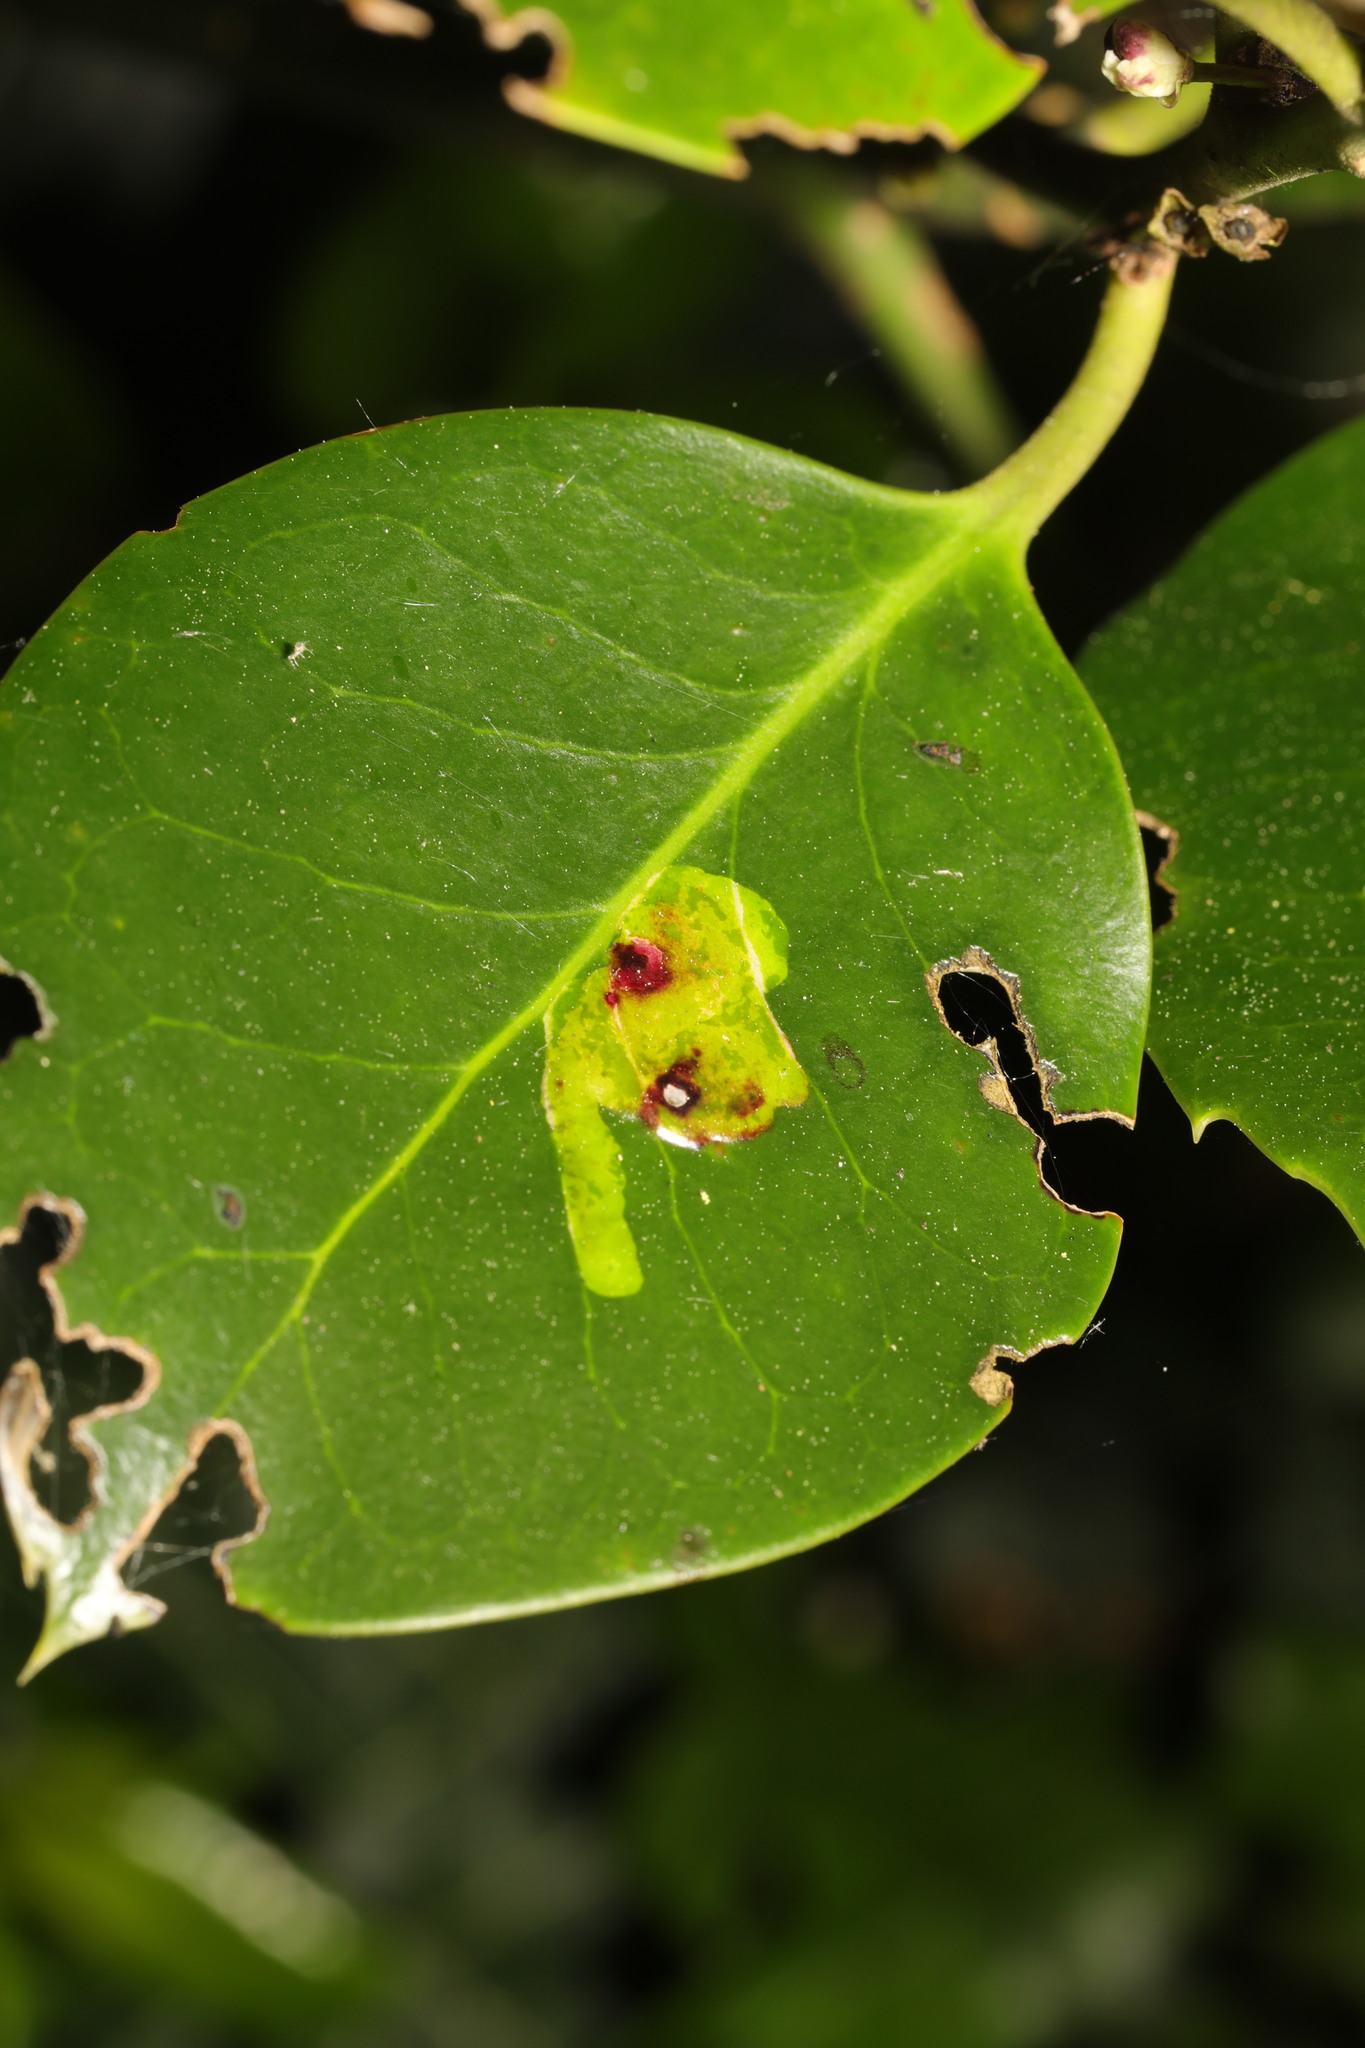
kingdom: Animalia
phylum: Arthropoda
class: Insecta
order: Diptera
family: Agromyzidae
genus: Phytomyza
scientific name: Phytomyza ilicis
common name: Holly leafminer
